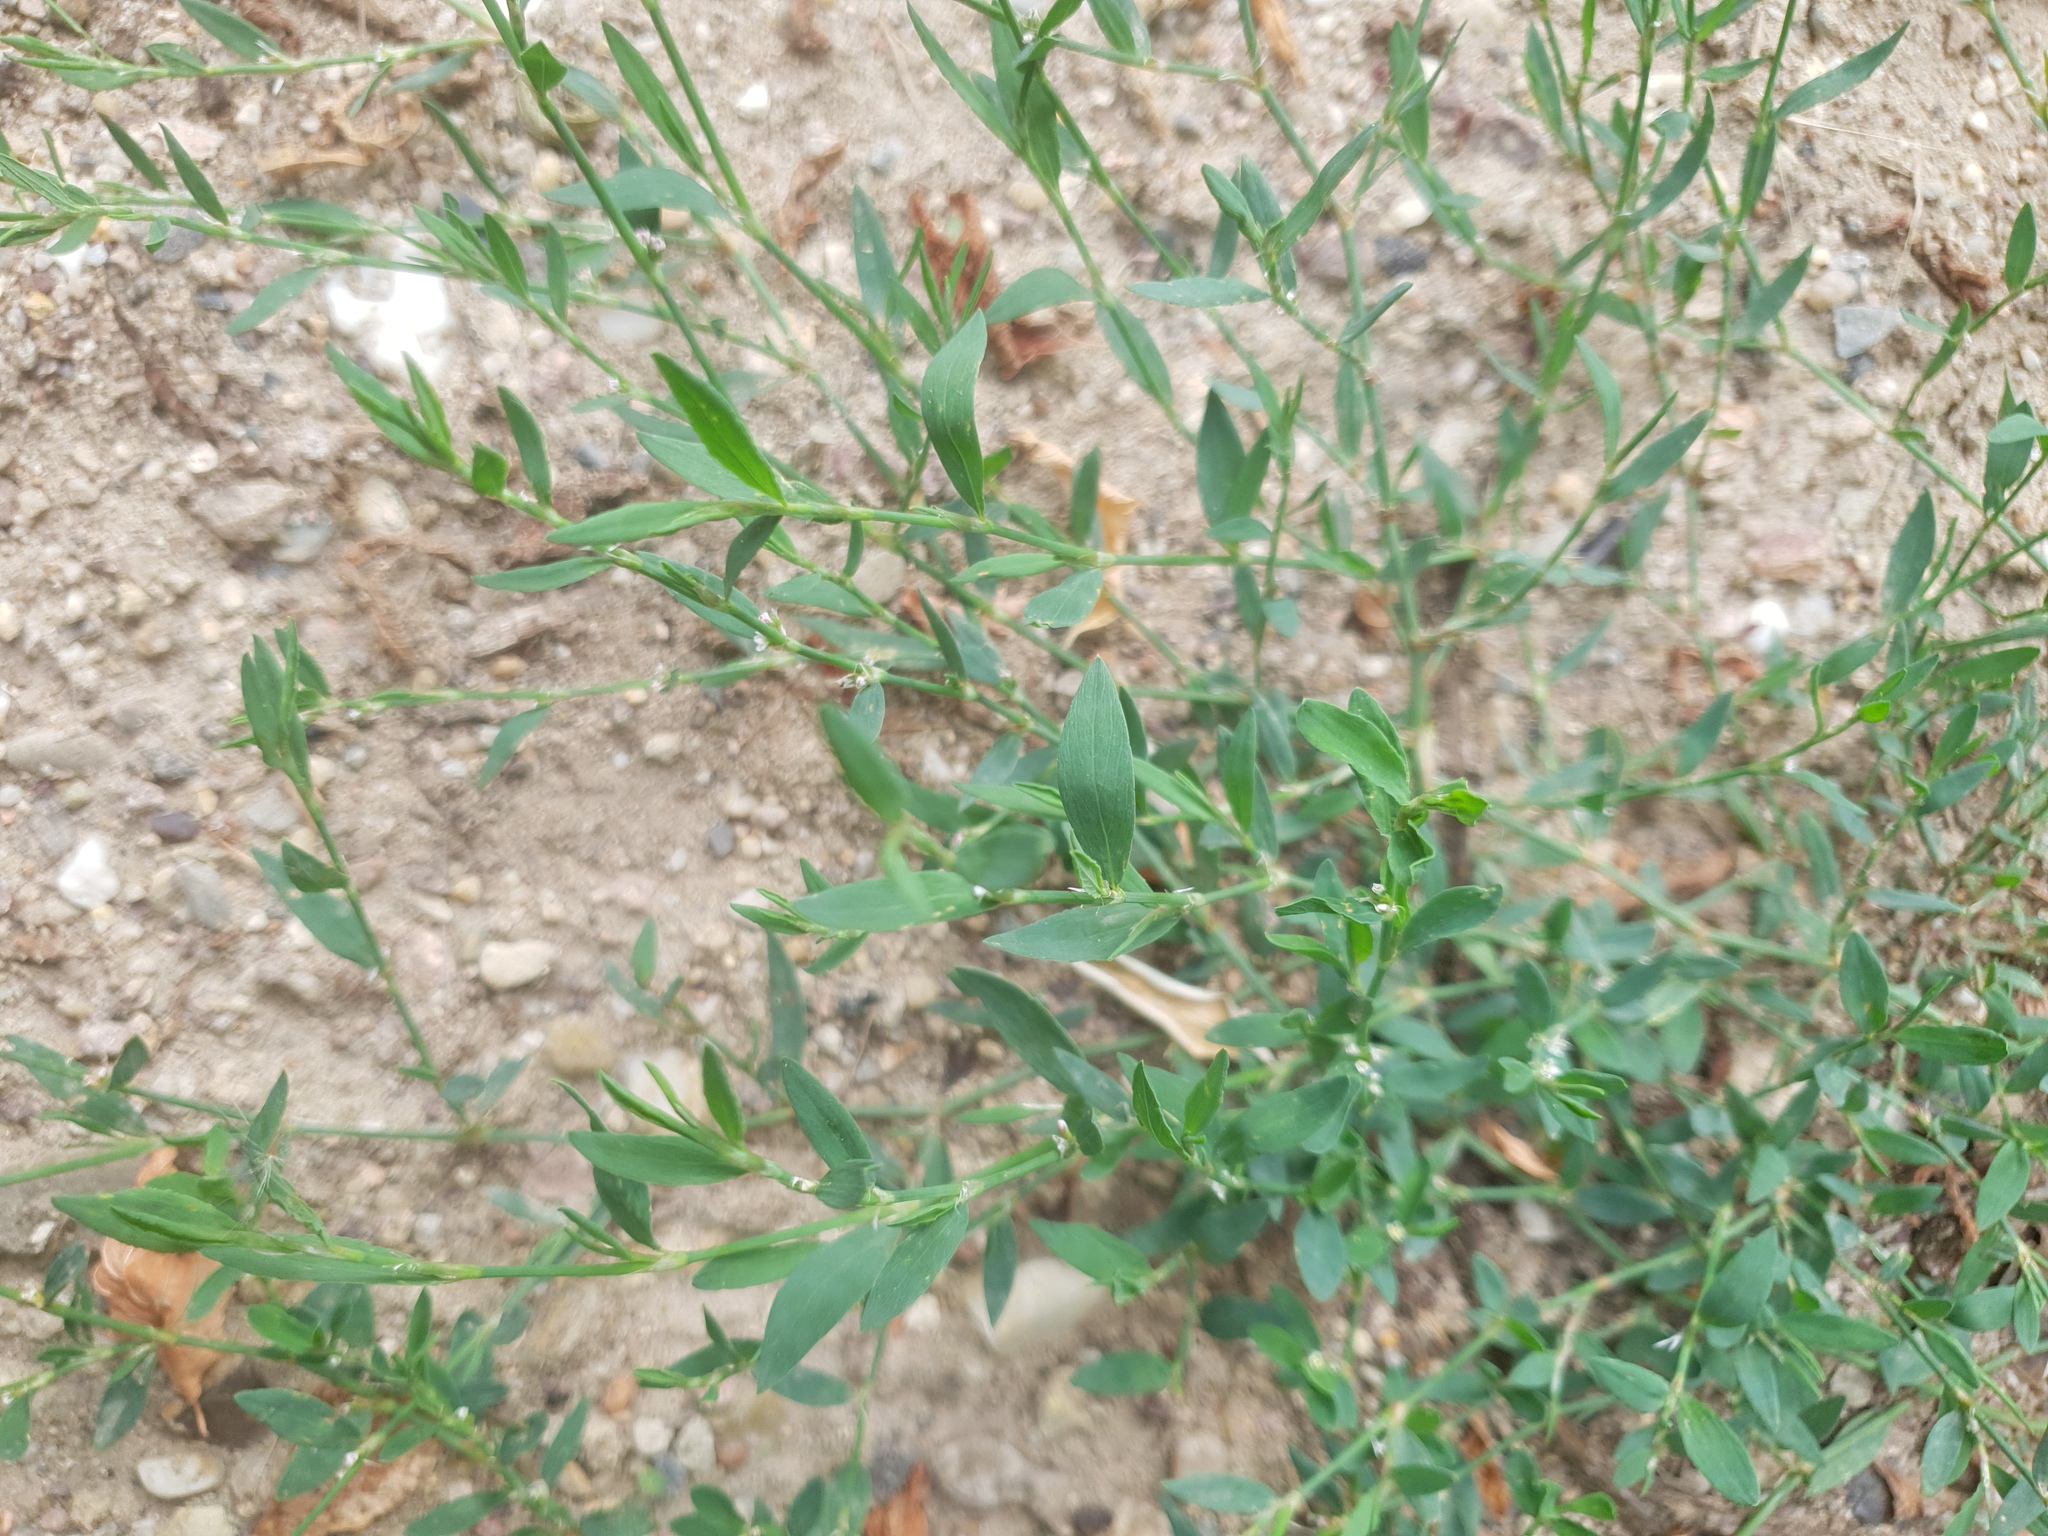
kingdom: Plantae
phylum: Tracheophyta
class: Magnoliopsida
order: Caryophyllales
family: Polygonaceae
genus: Polygonum
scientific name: Polygonum aviculare
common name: Prostrate knotweed
